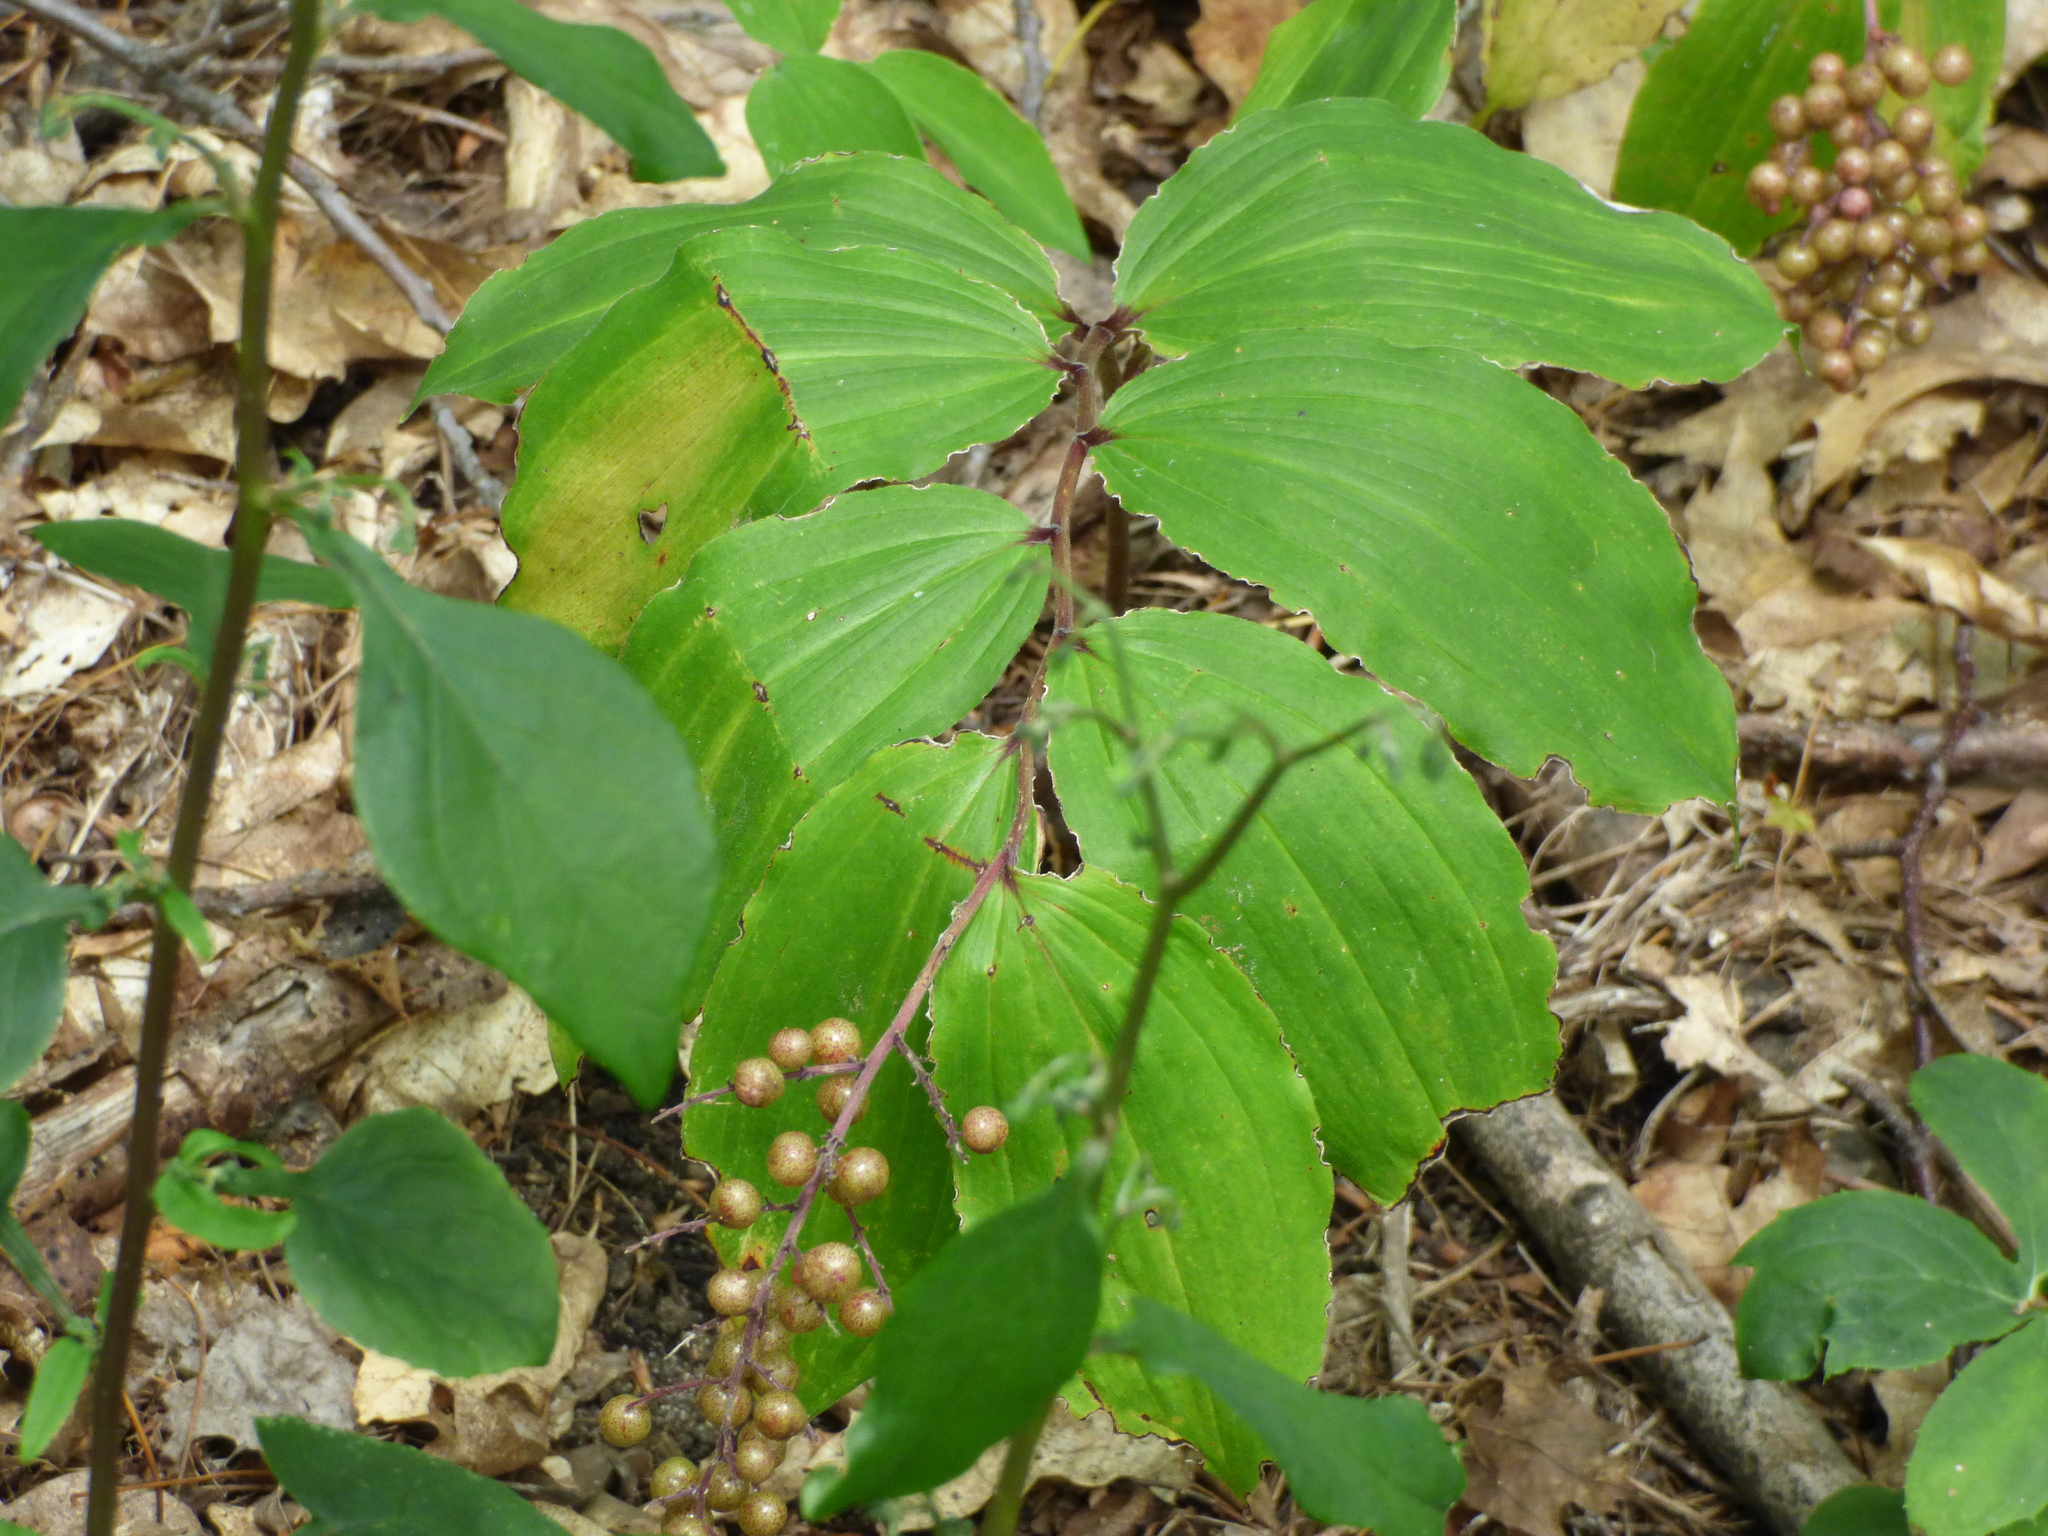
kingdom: Plantae
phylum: Tracheophyta
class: Liliopsida
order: Asparagales
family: Asparagaceae
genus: Maianthemum
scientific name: Maianthemum racemosum
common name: False spikenard
